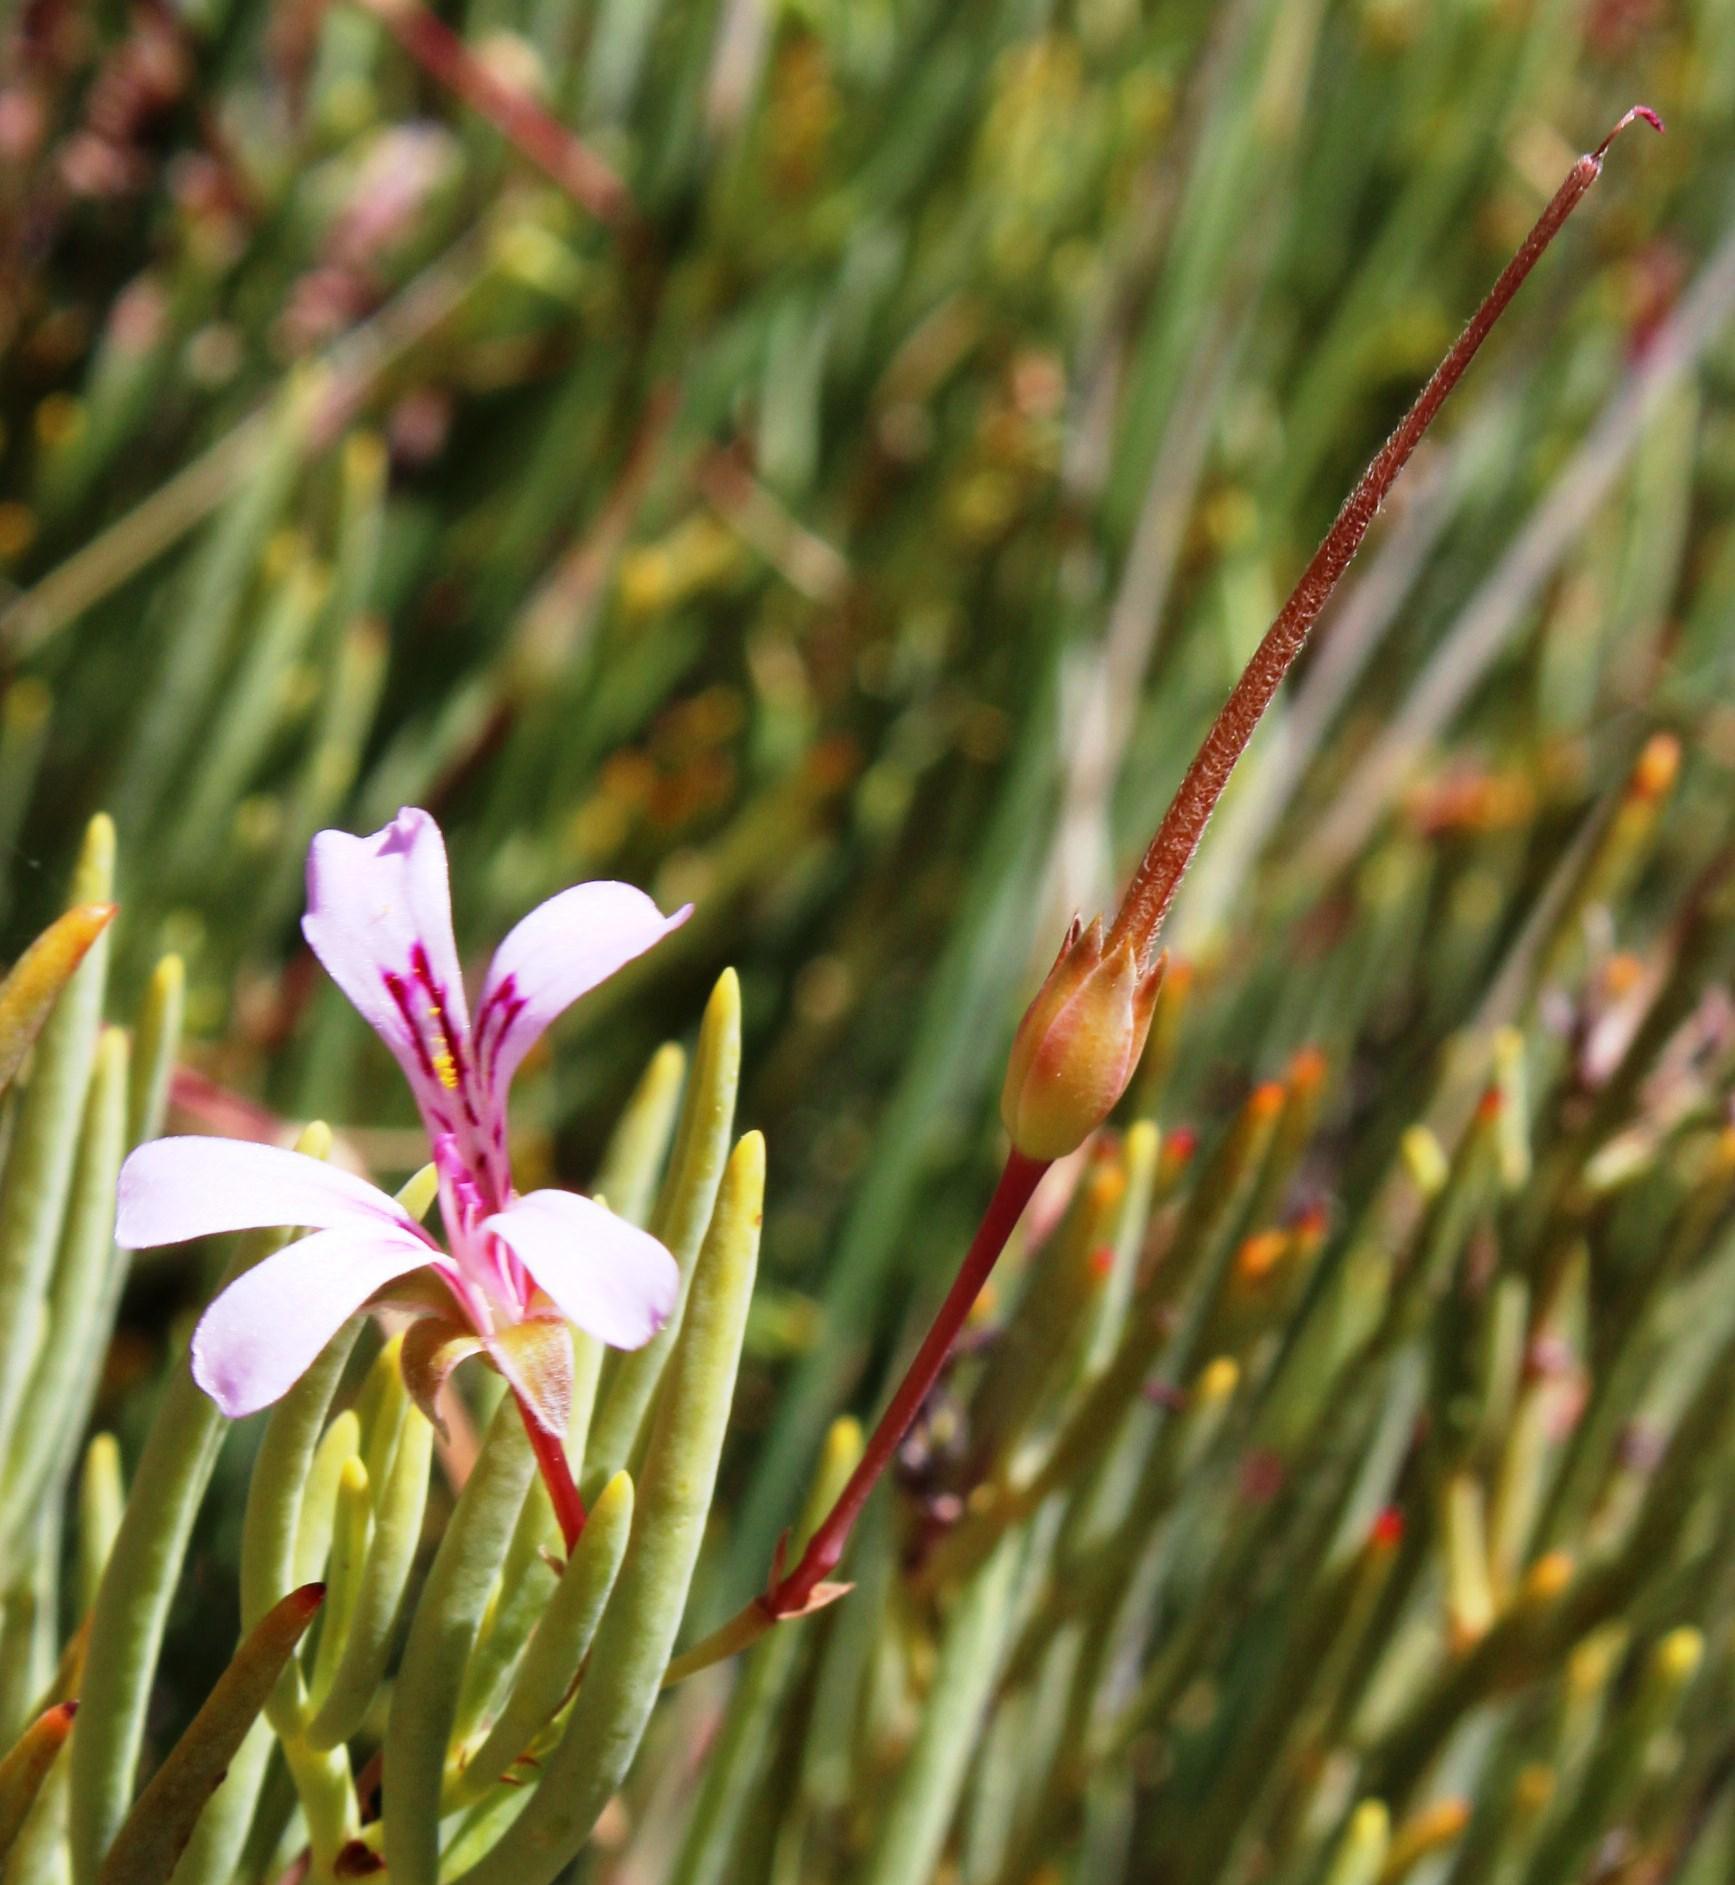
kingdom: Plantae
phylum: Tracheophyta
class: Magnoliopsida
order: Geraniales
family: Geraniaceae
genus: Pelargonium
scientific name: Pelargonium laevigatum
